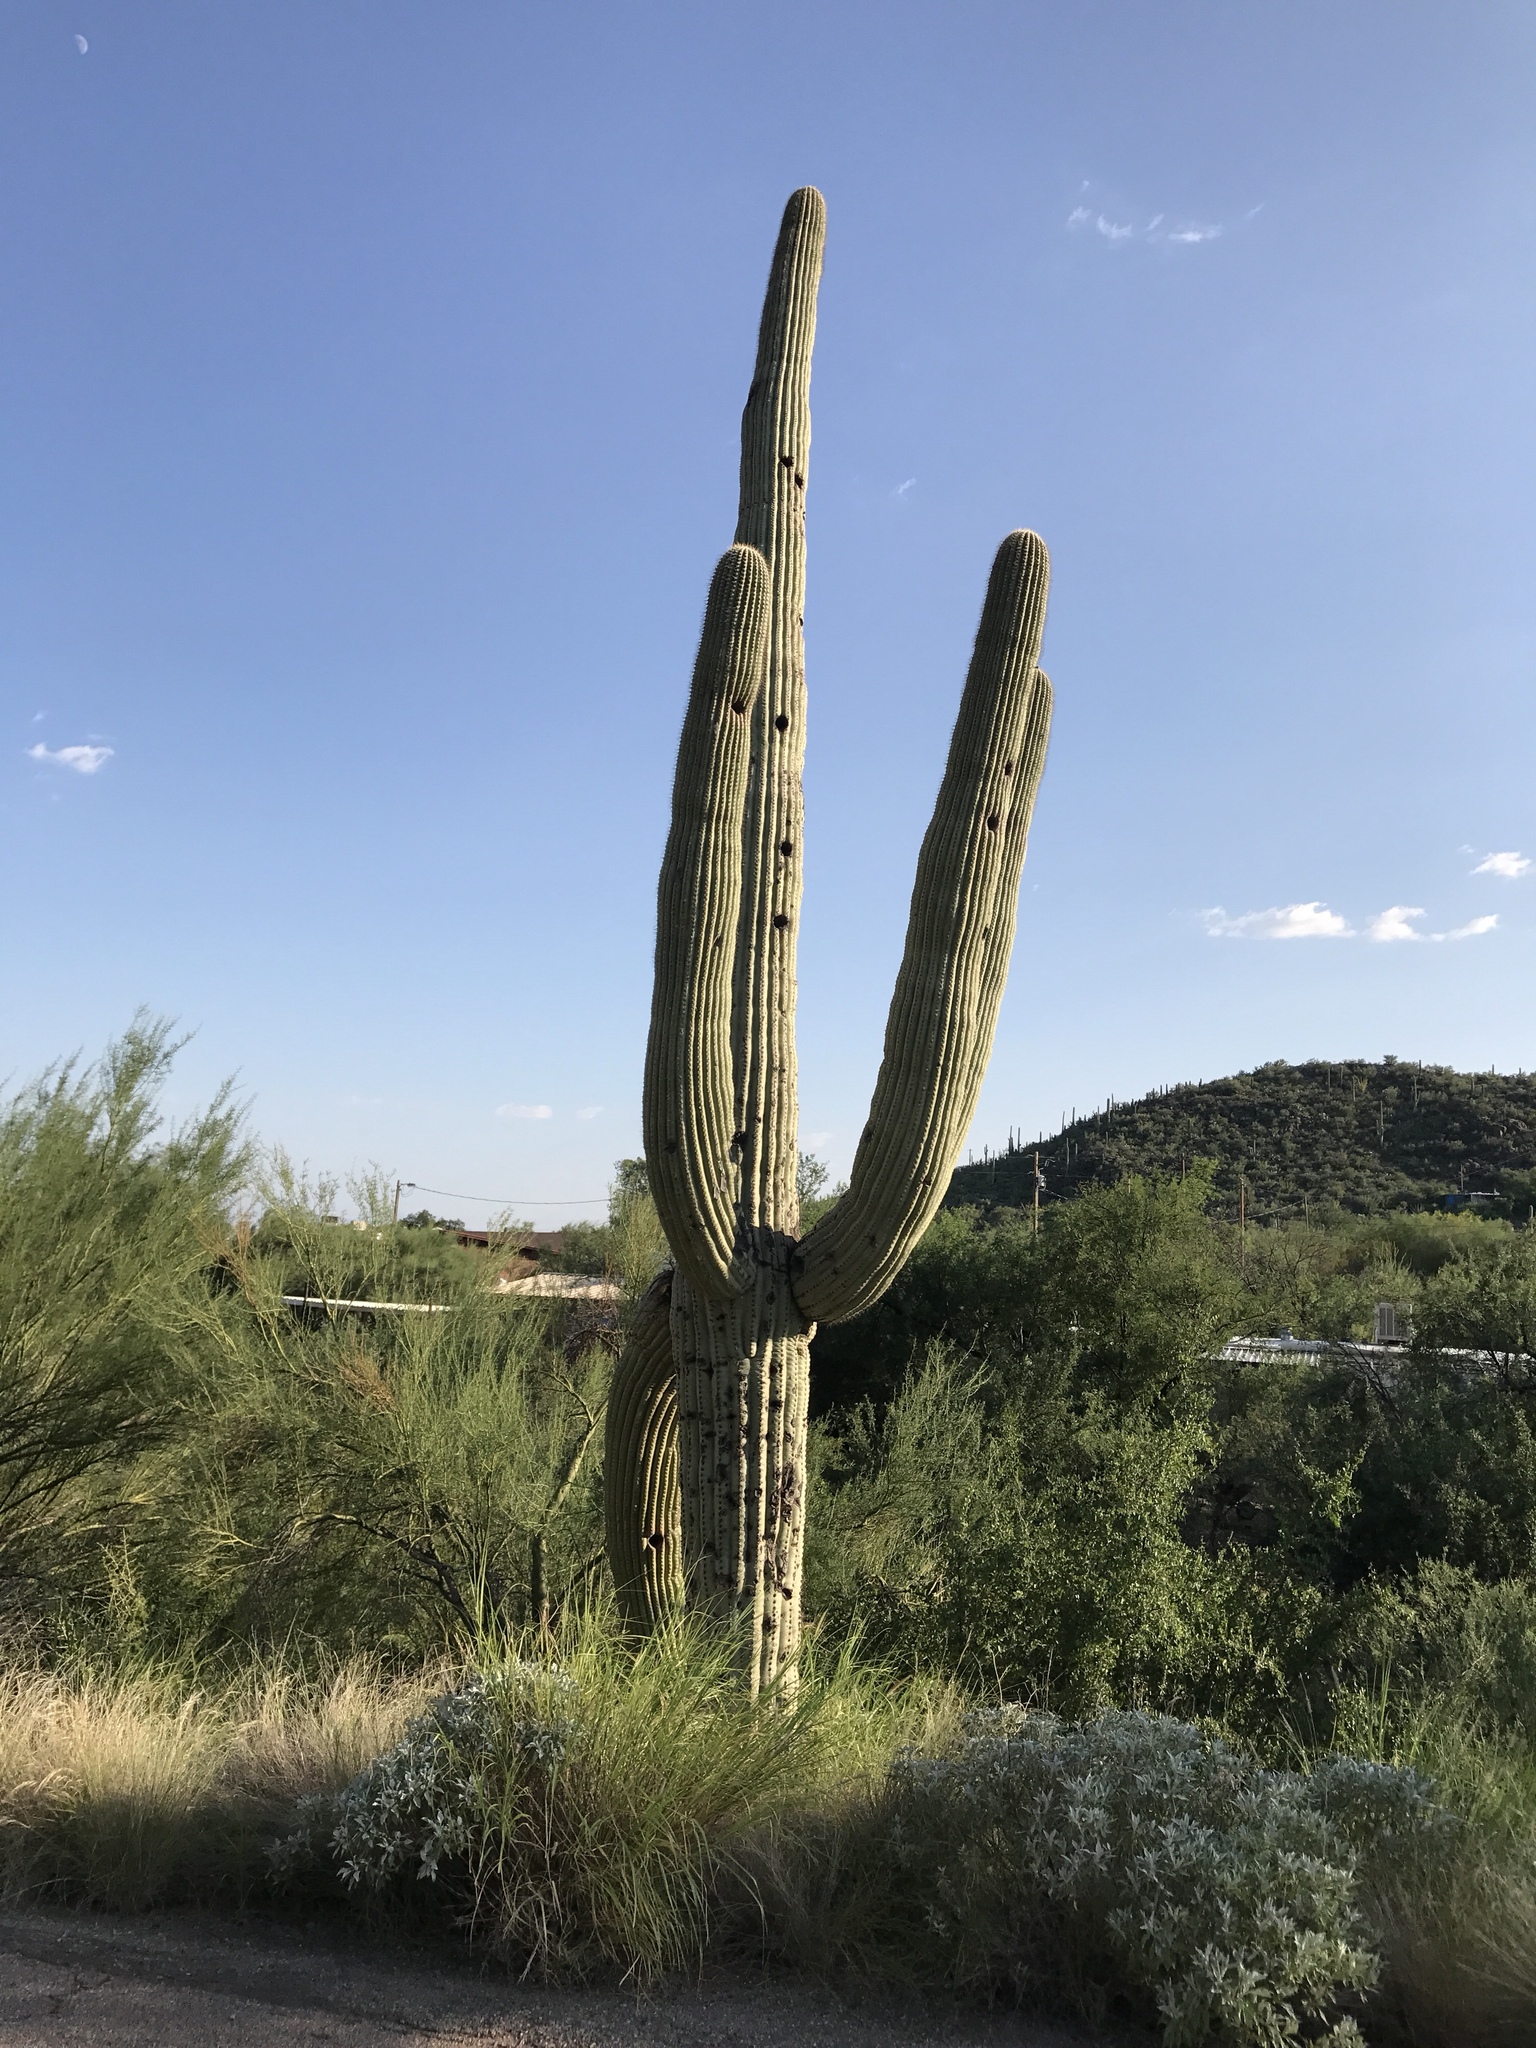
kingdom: Plantae
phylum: Tracheophyta
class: Magnoliopsida
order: Caryophyllales
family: Cactaceae
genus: Carnegiea
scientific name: Carnegiea gigantea
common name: Saguaro
